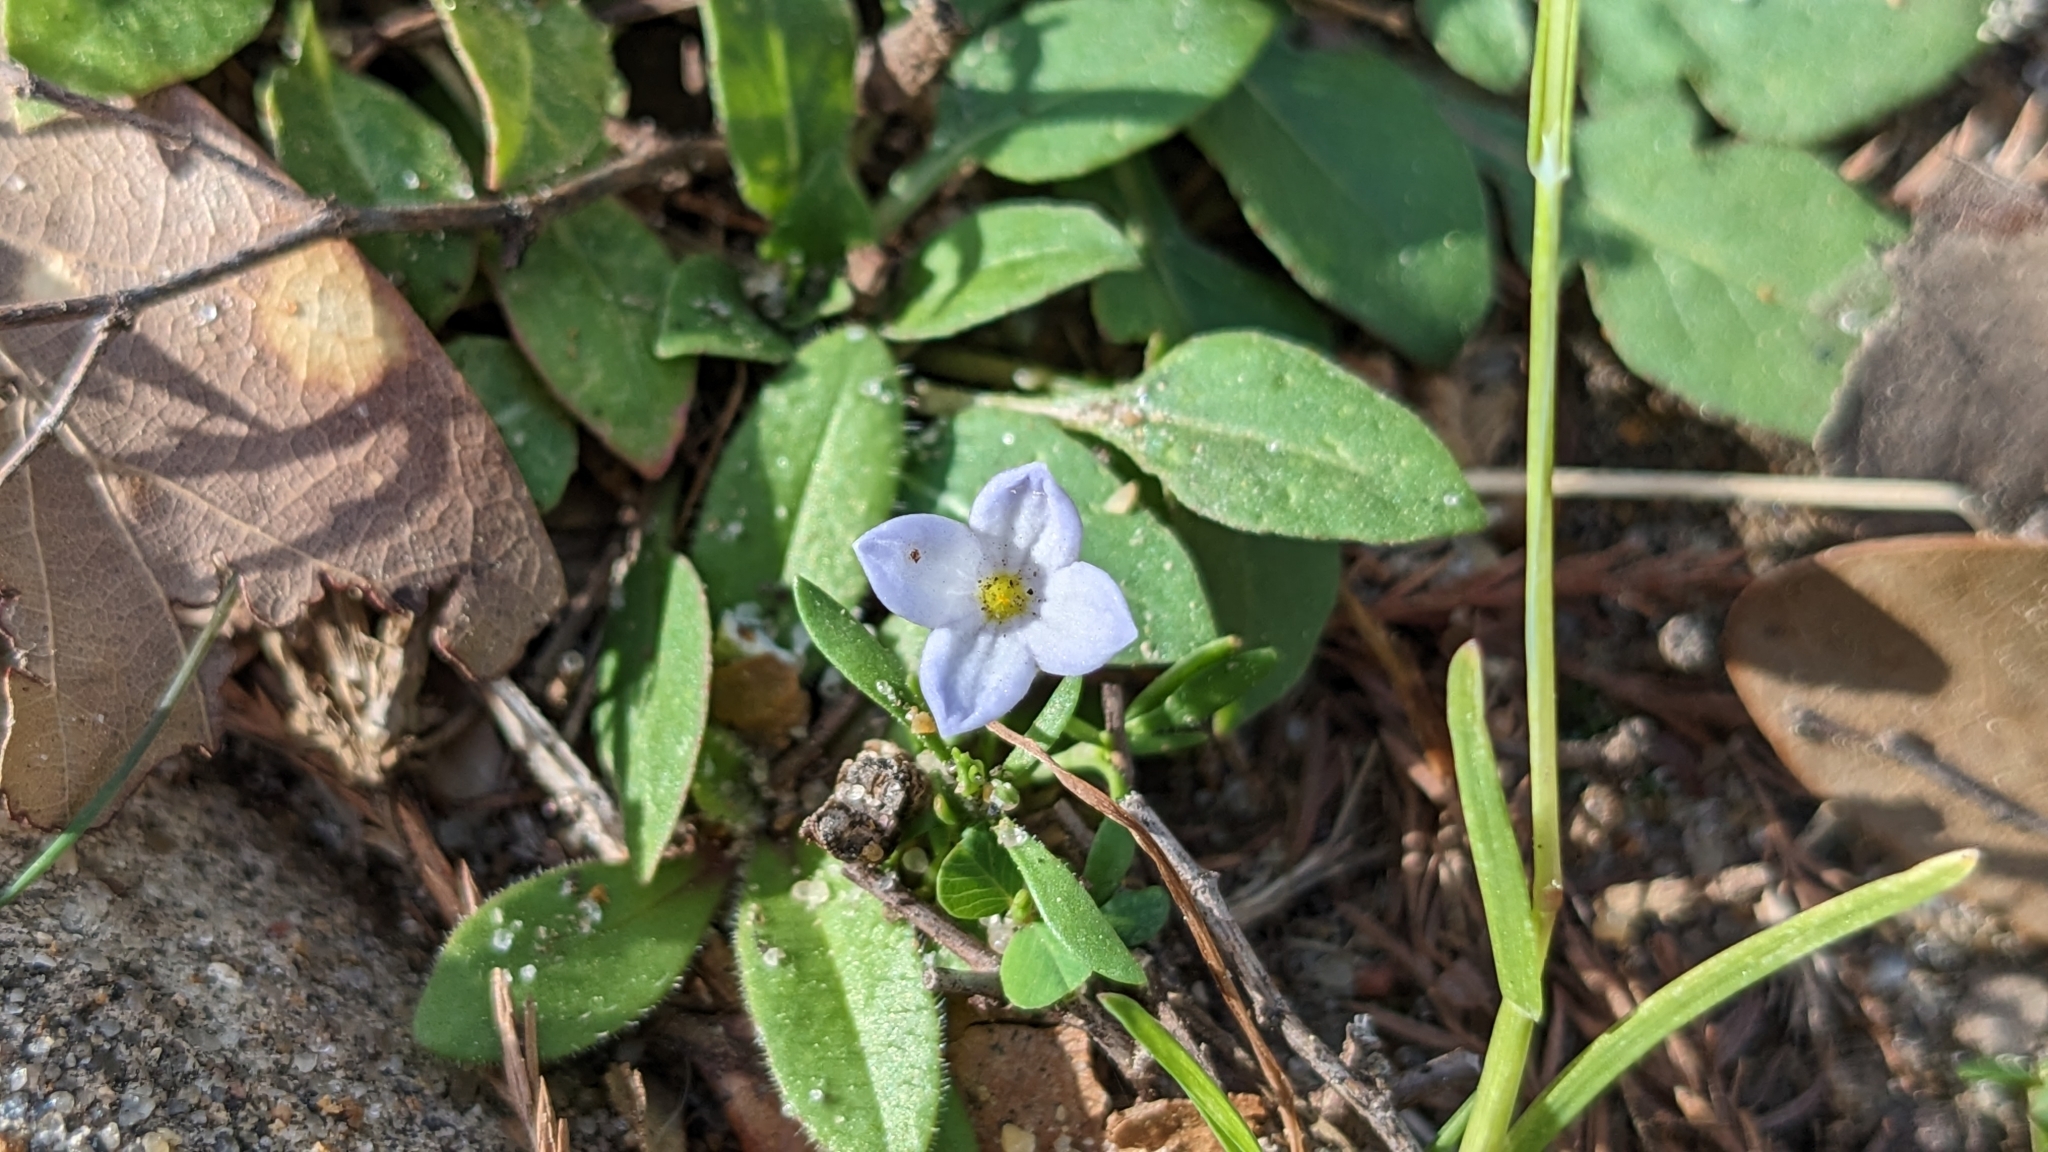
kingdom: Plantae
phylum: Tracheophyta
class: Magnoliopsida
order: Gentianales
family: Rubiaceae
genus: Houstonia
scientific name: Houstonia rosea
